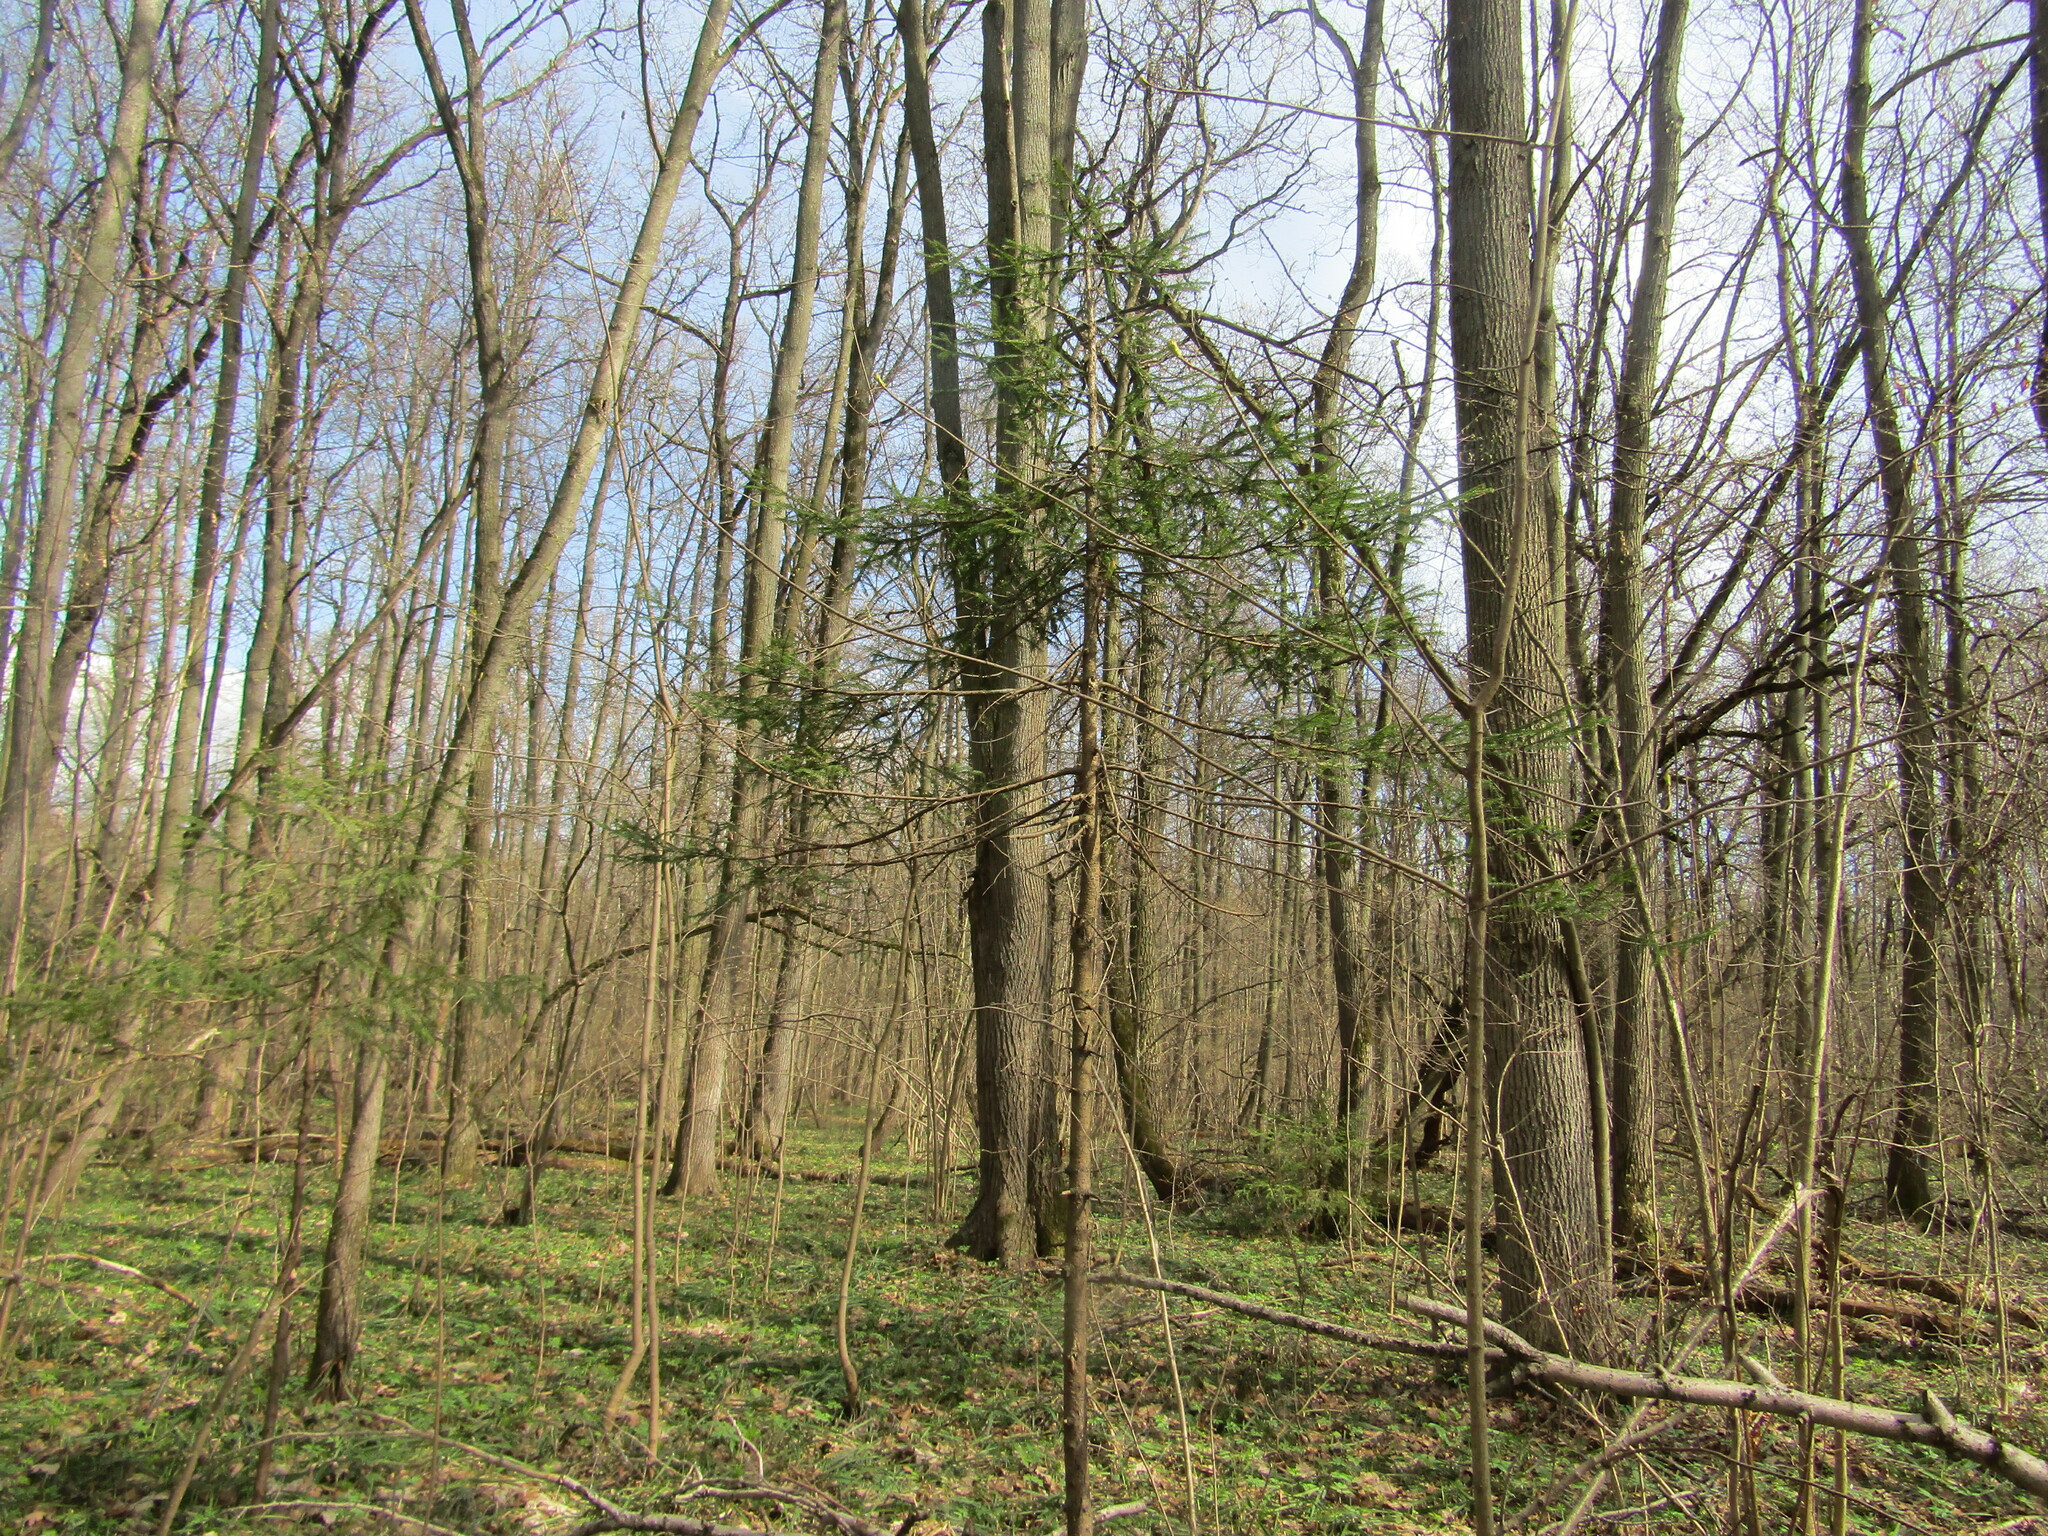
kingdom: Plantae
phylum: Tracheophyta
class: Pinopsida
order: Pinales
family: Pinaceae
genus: Picea
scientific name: Picea abies
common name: Norway spruce
